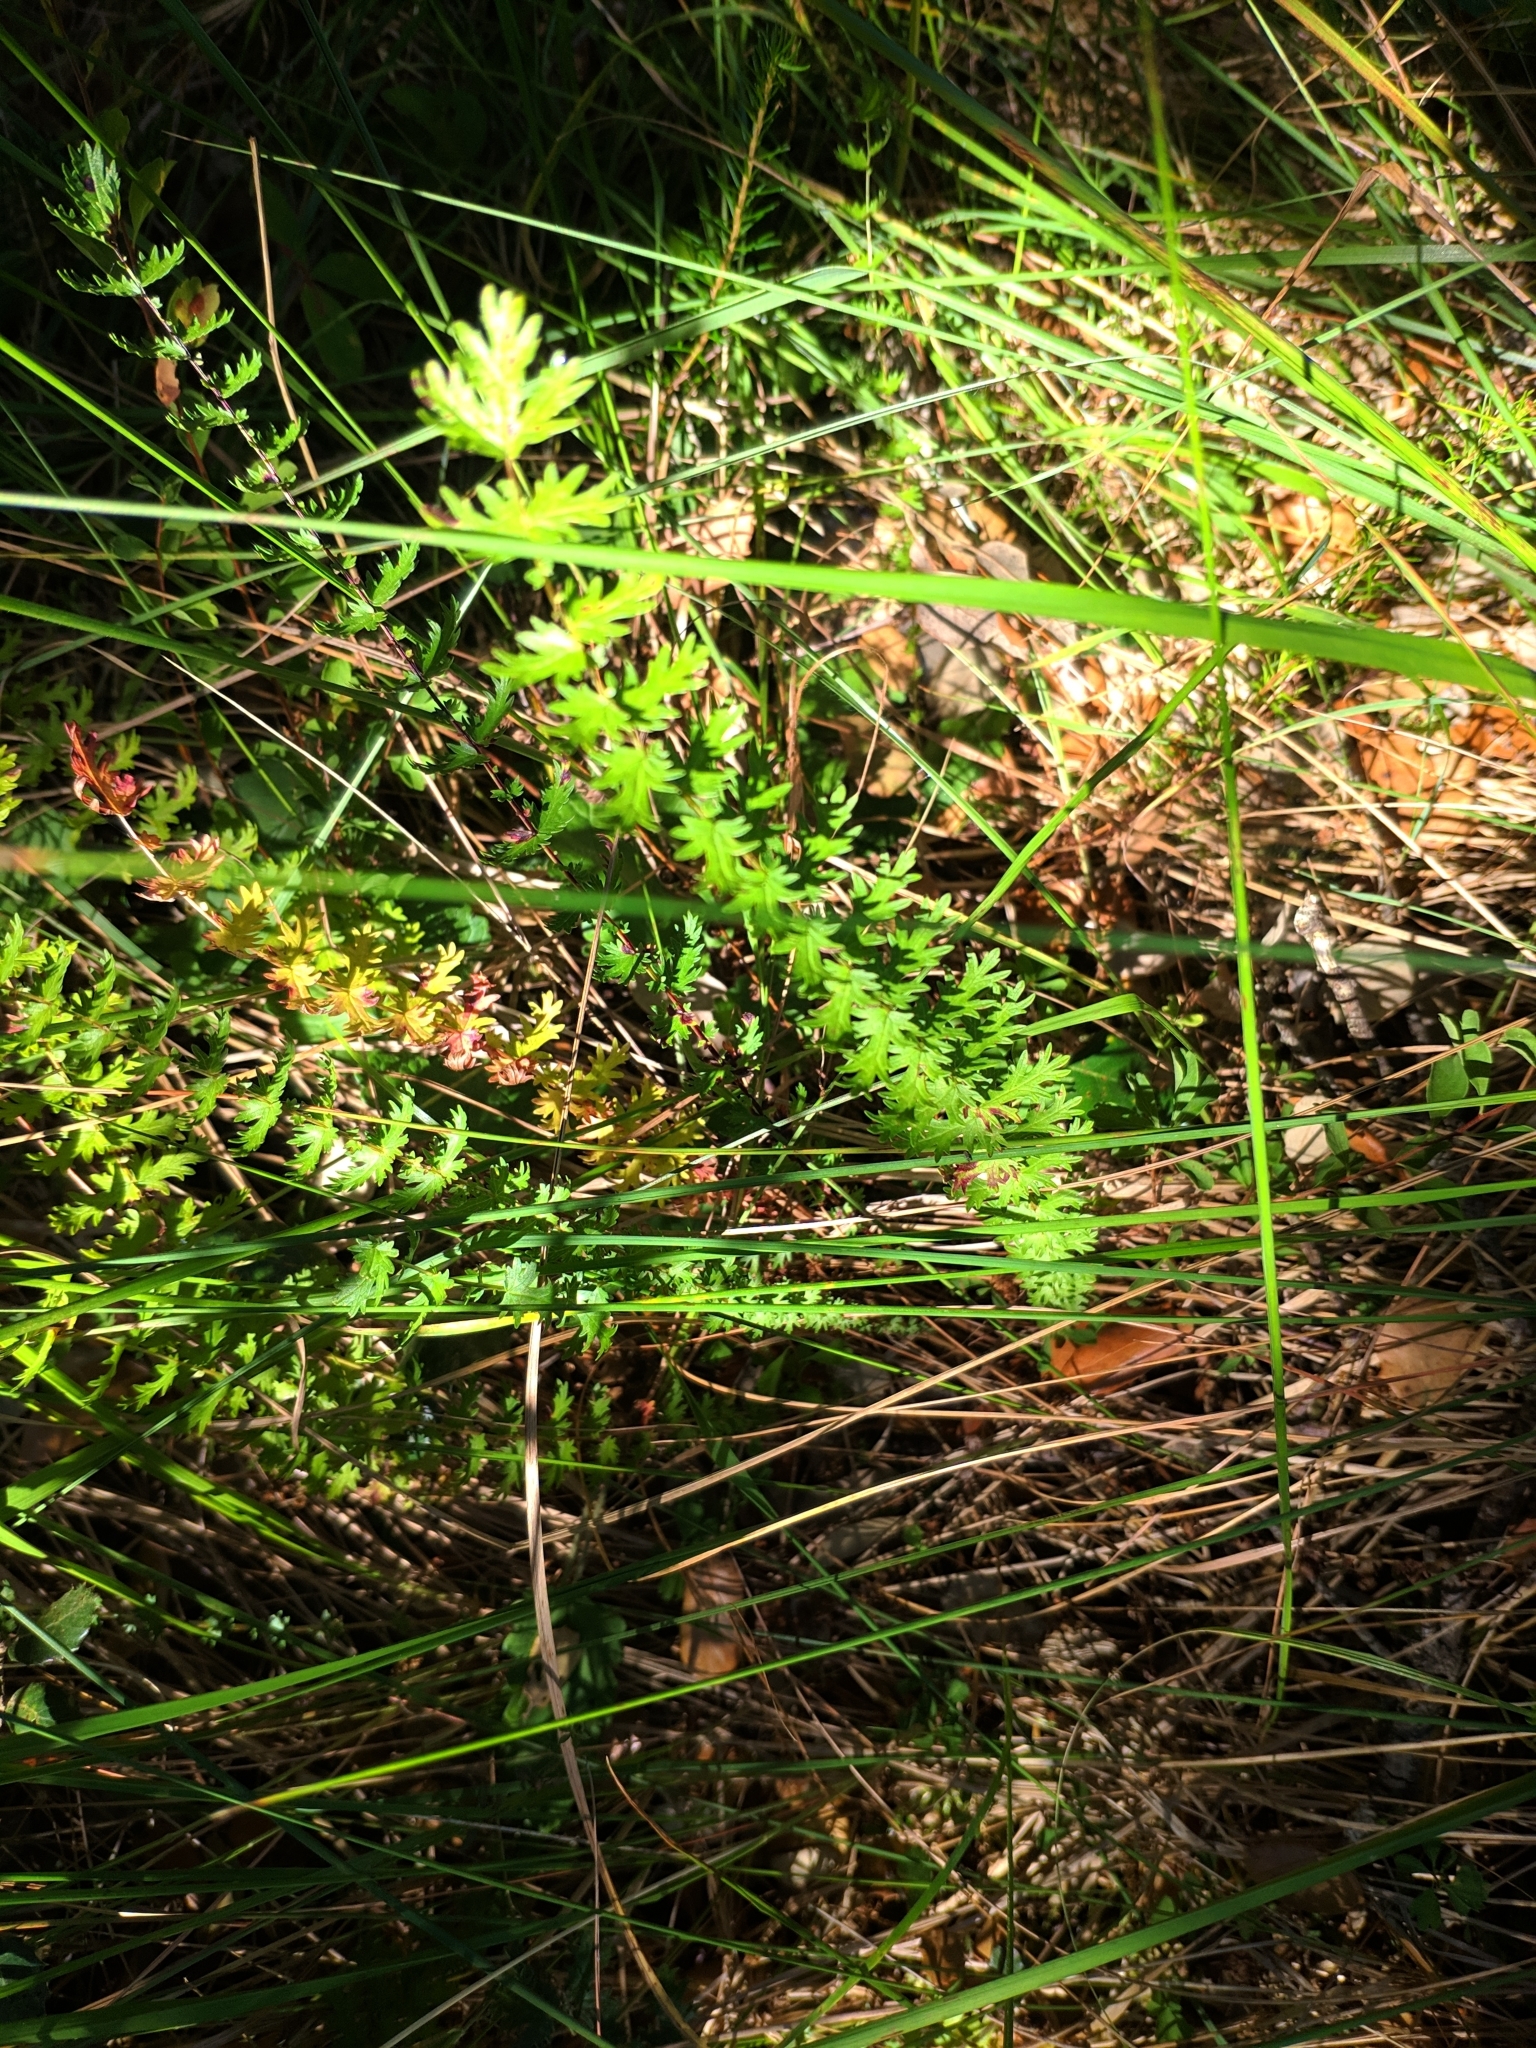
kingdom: Plantae
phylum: Tracheophyta
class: Magnoliopsida
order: Rosales
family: Rosaceae
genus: Filipendula
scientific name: Filipendula vulgaris
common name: Dropwort
